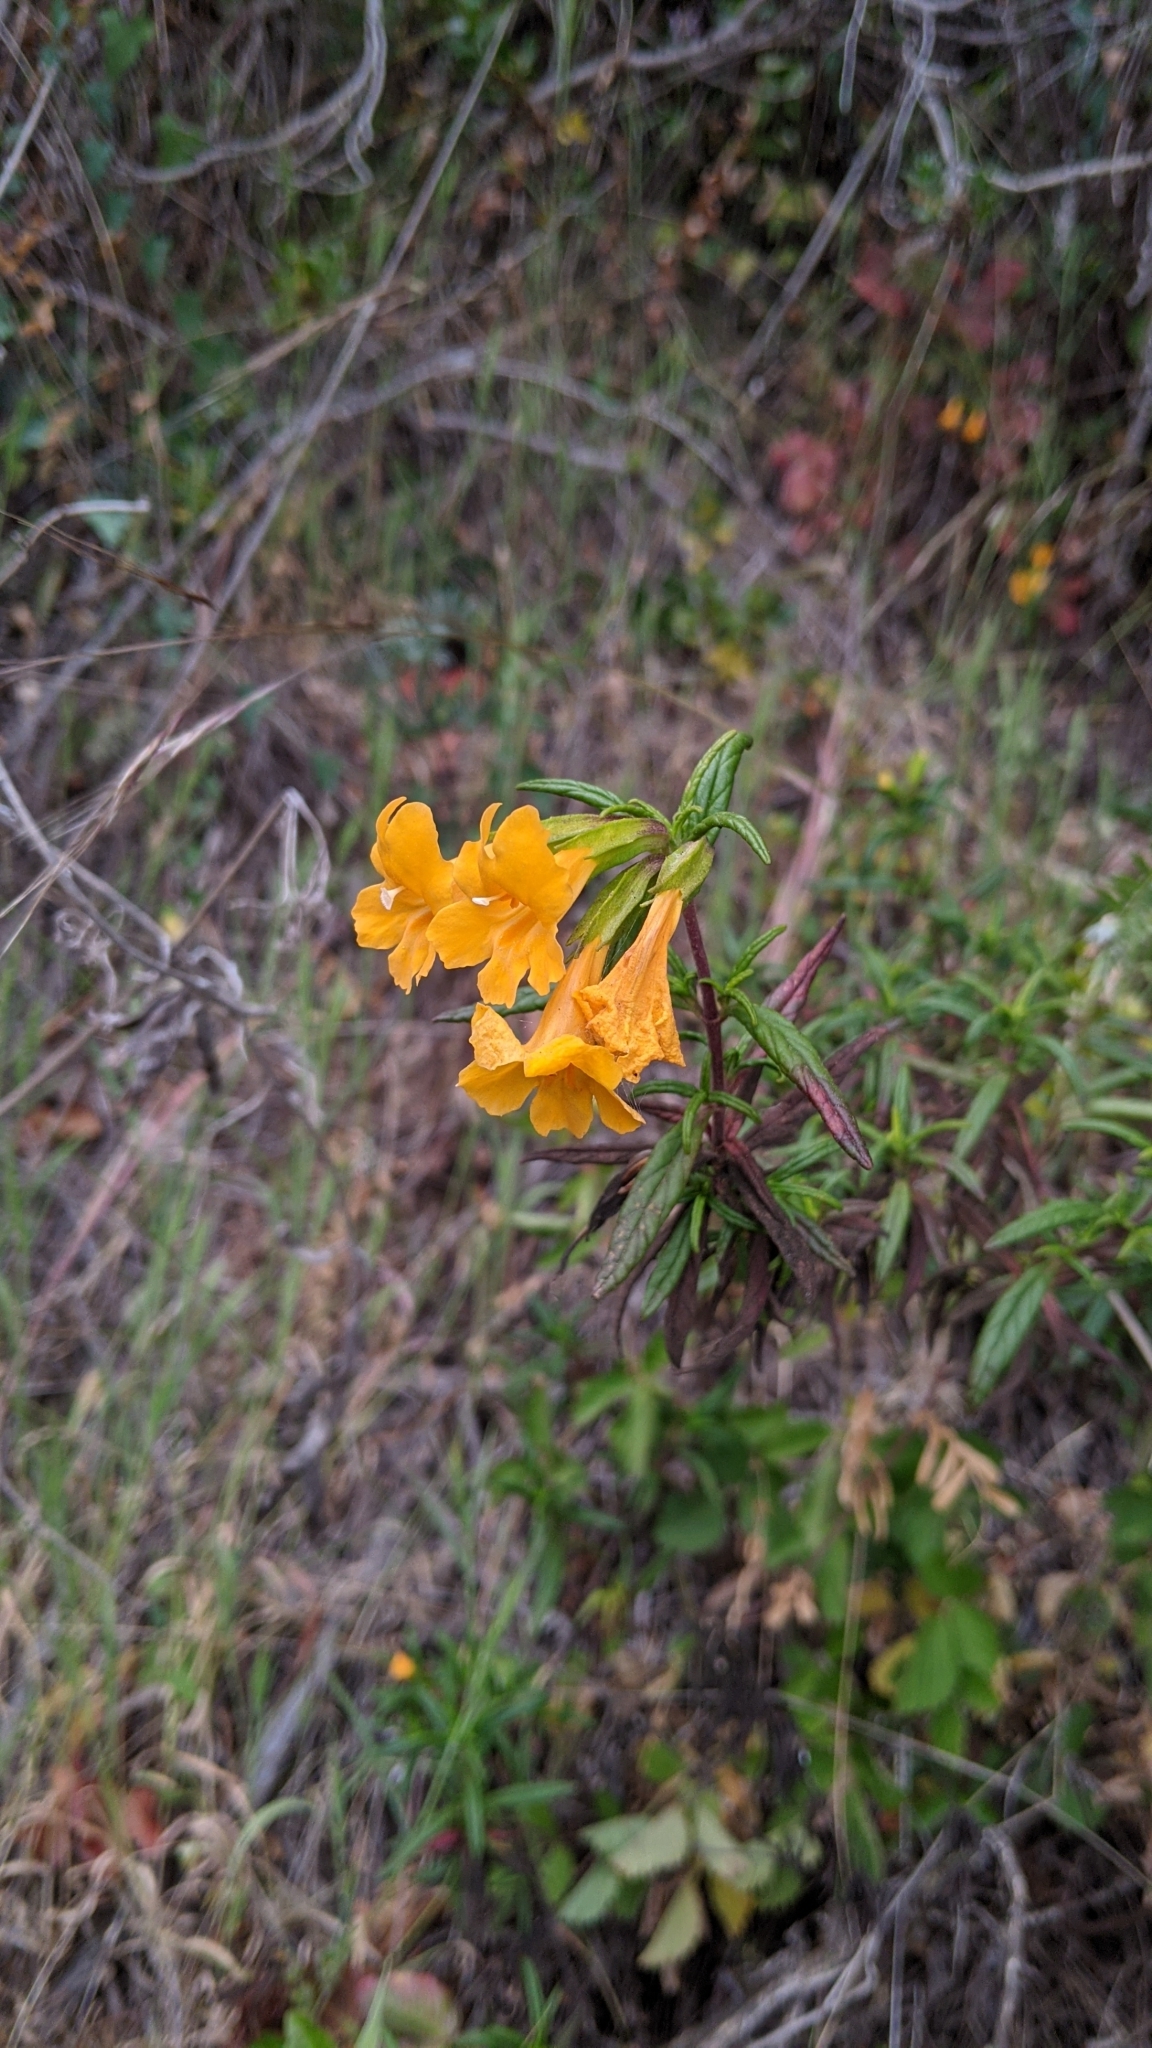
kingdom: Plantae
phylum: Tracheophyta
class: Magnoliopsida
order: Lamiales
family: Phrymaceae
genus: Diplacus
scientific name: Diplacus aurantiacus
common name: Bush monkey-flower
